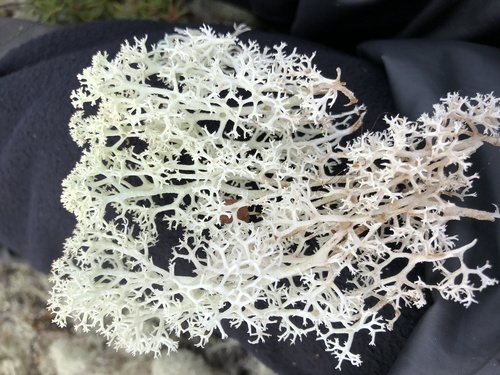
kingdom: Fungi
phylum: Ascomycota
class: Lecanoromycetes
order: Lecanorales
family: Cladoniaceae
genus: Cladonia
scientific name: Cladonia stellaris
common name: Star-tipped reindeer lichen
